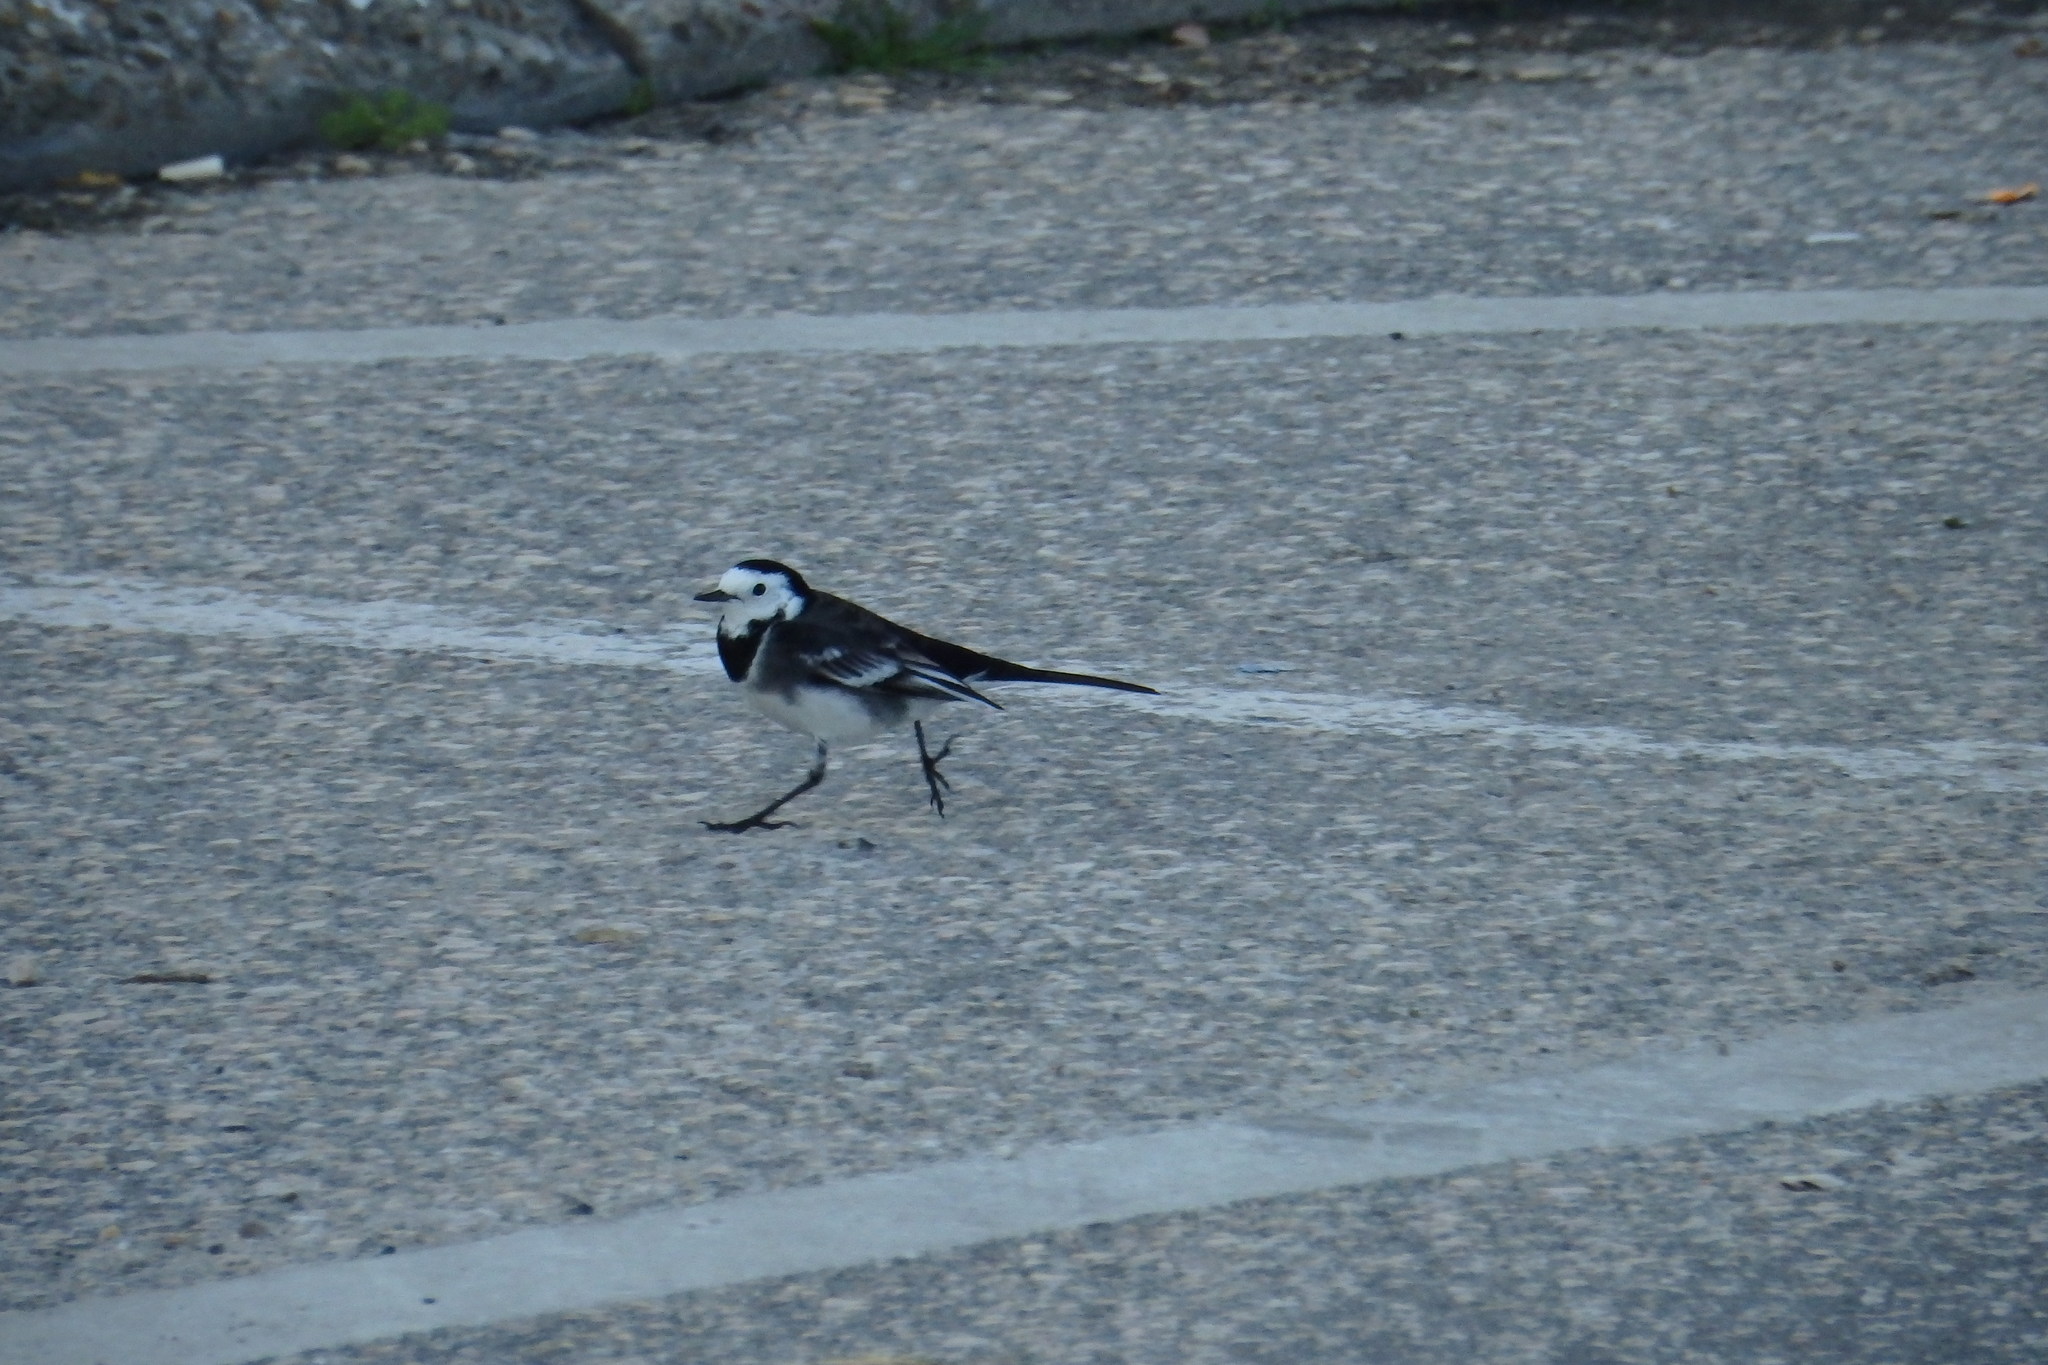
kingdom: Animalia
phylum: Chordata
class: Aves
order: Passeriformes
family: Motacillidae
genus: Motacilla
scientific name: Motacilla alba
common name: White wagtail
